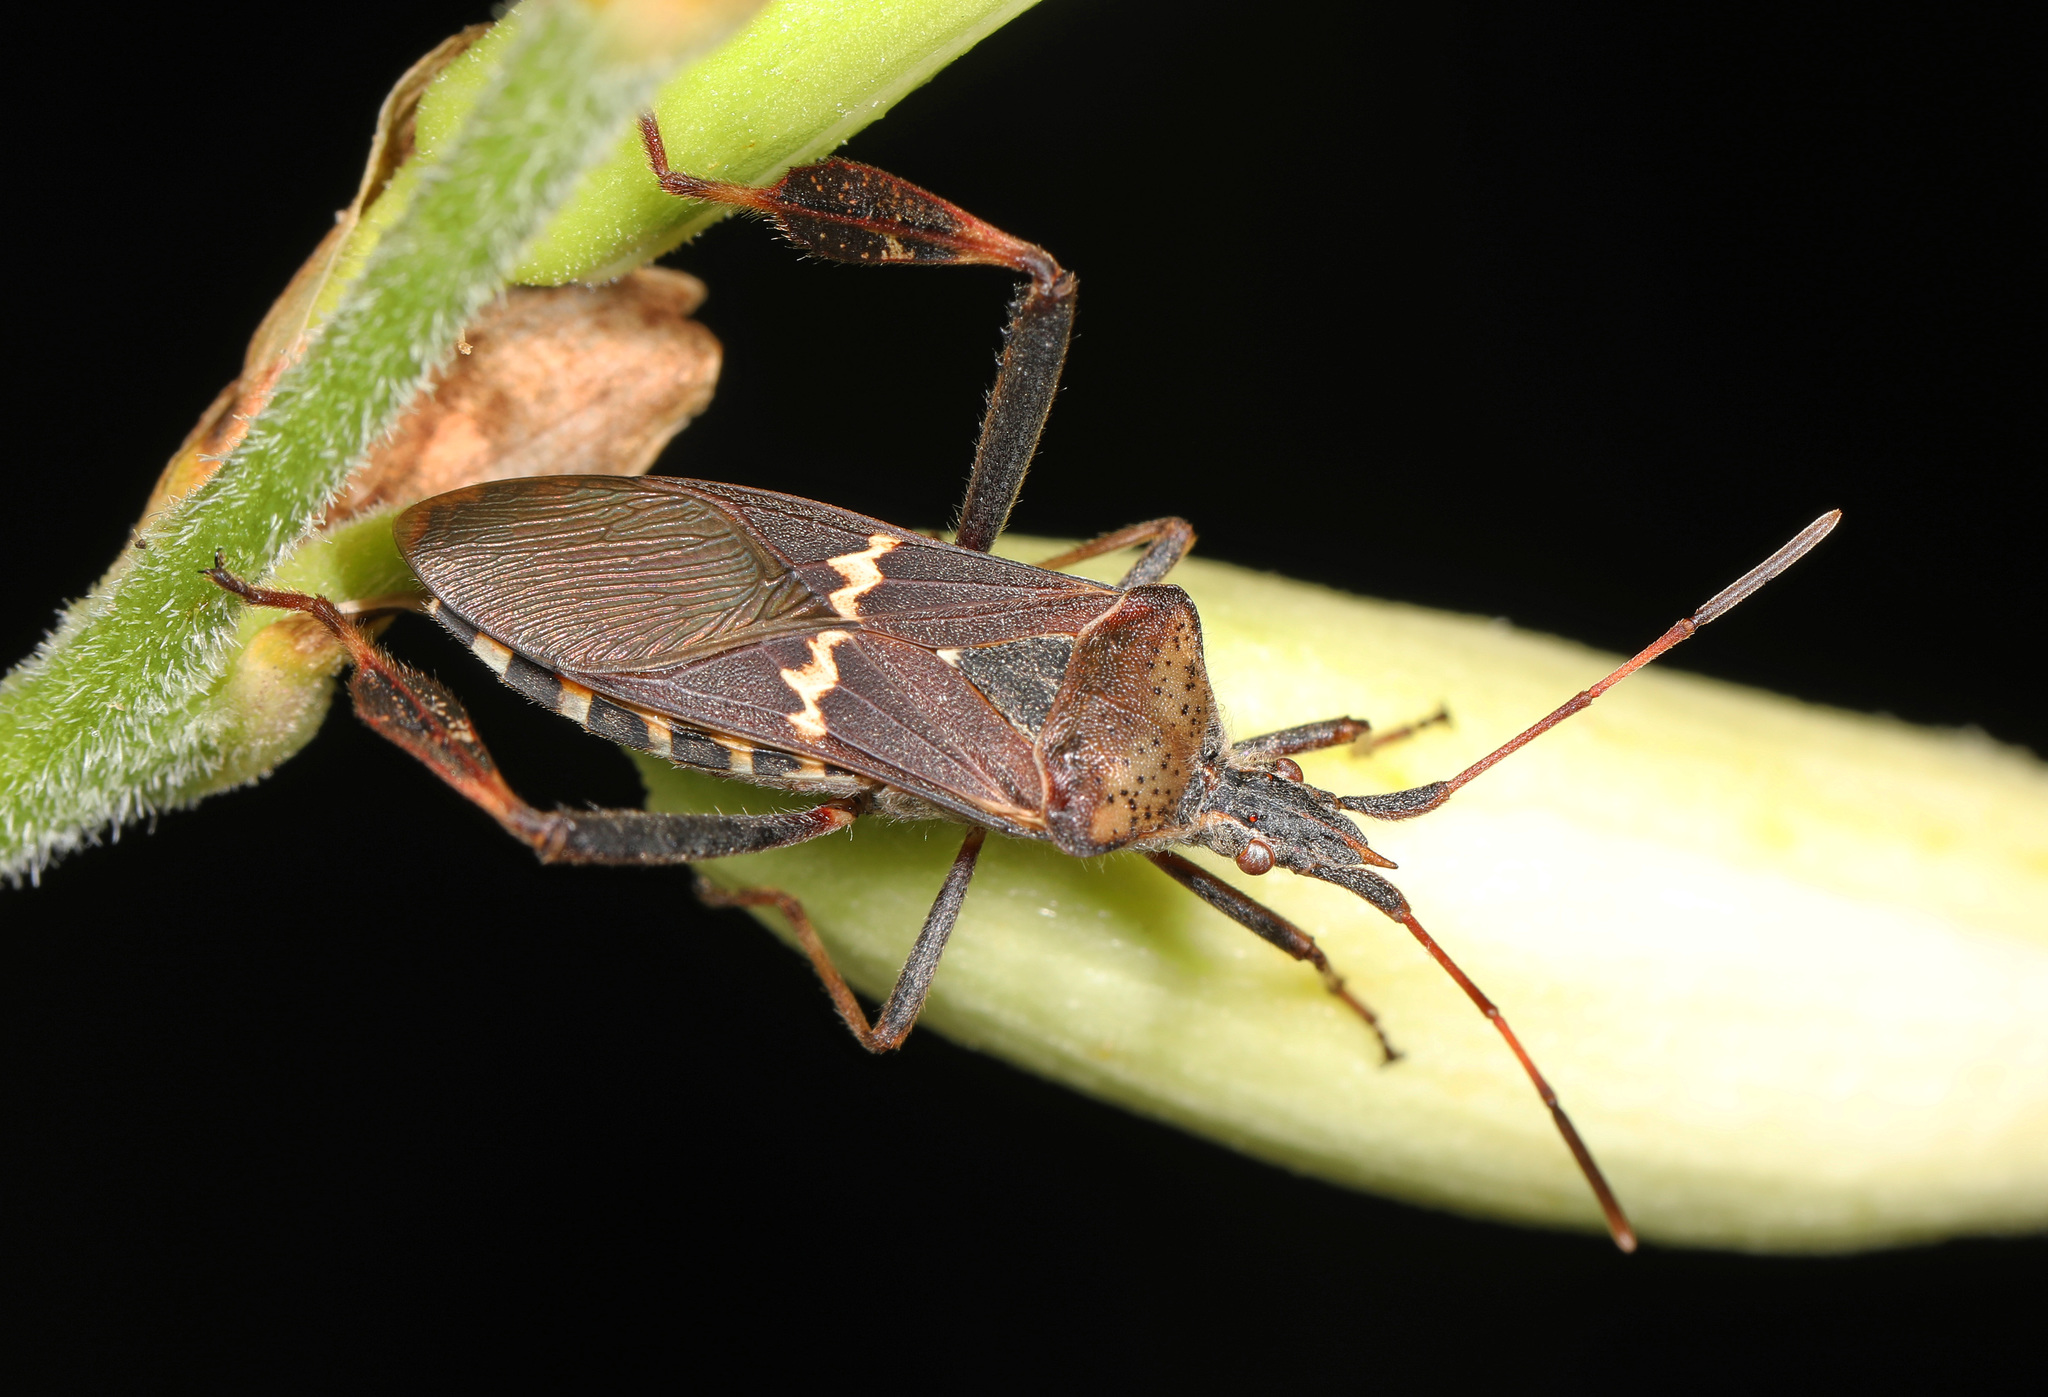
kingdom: Animalia
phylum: Arthropoda
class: Insecta
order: Hemiptera
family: Coreidae
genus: Leptoglossus
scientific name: Leptoglossus clypealis
